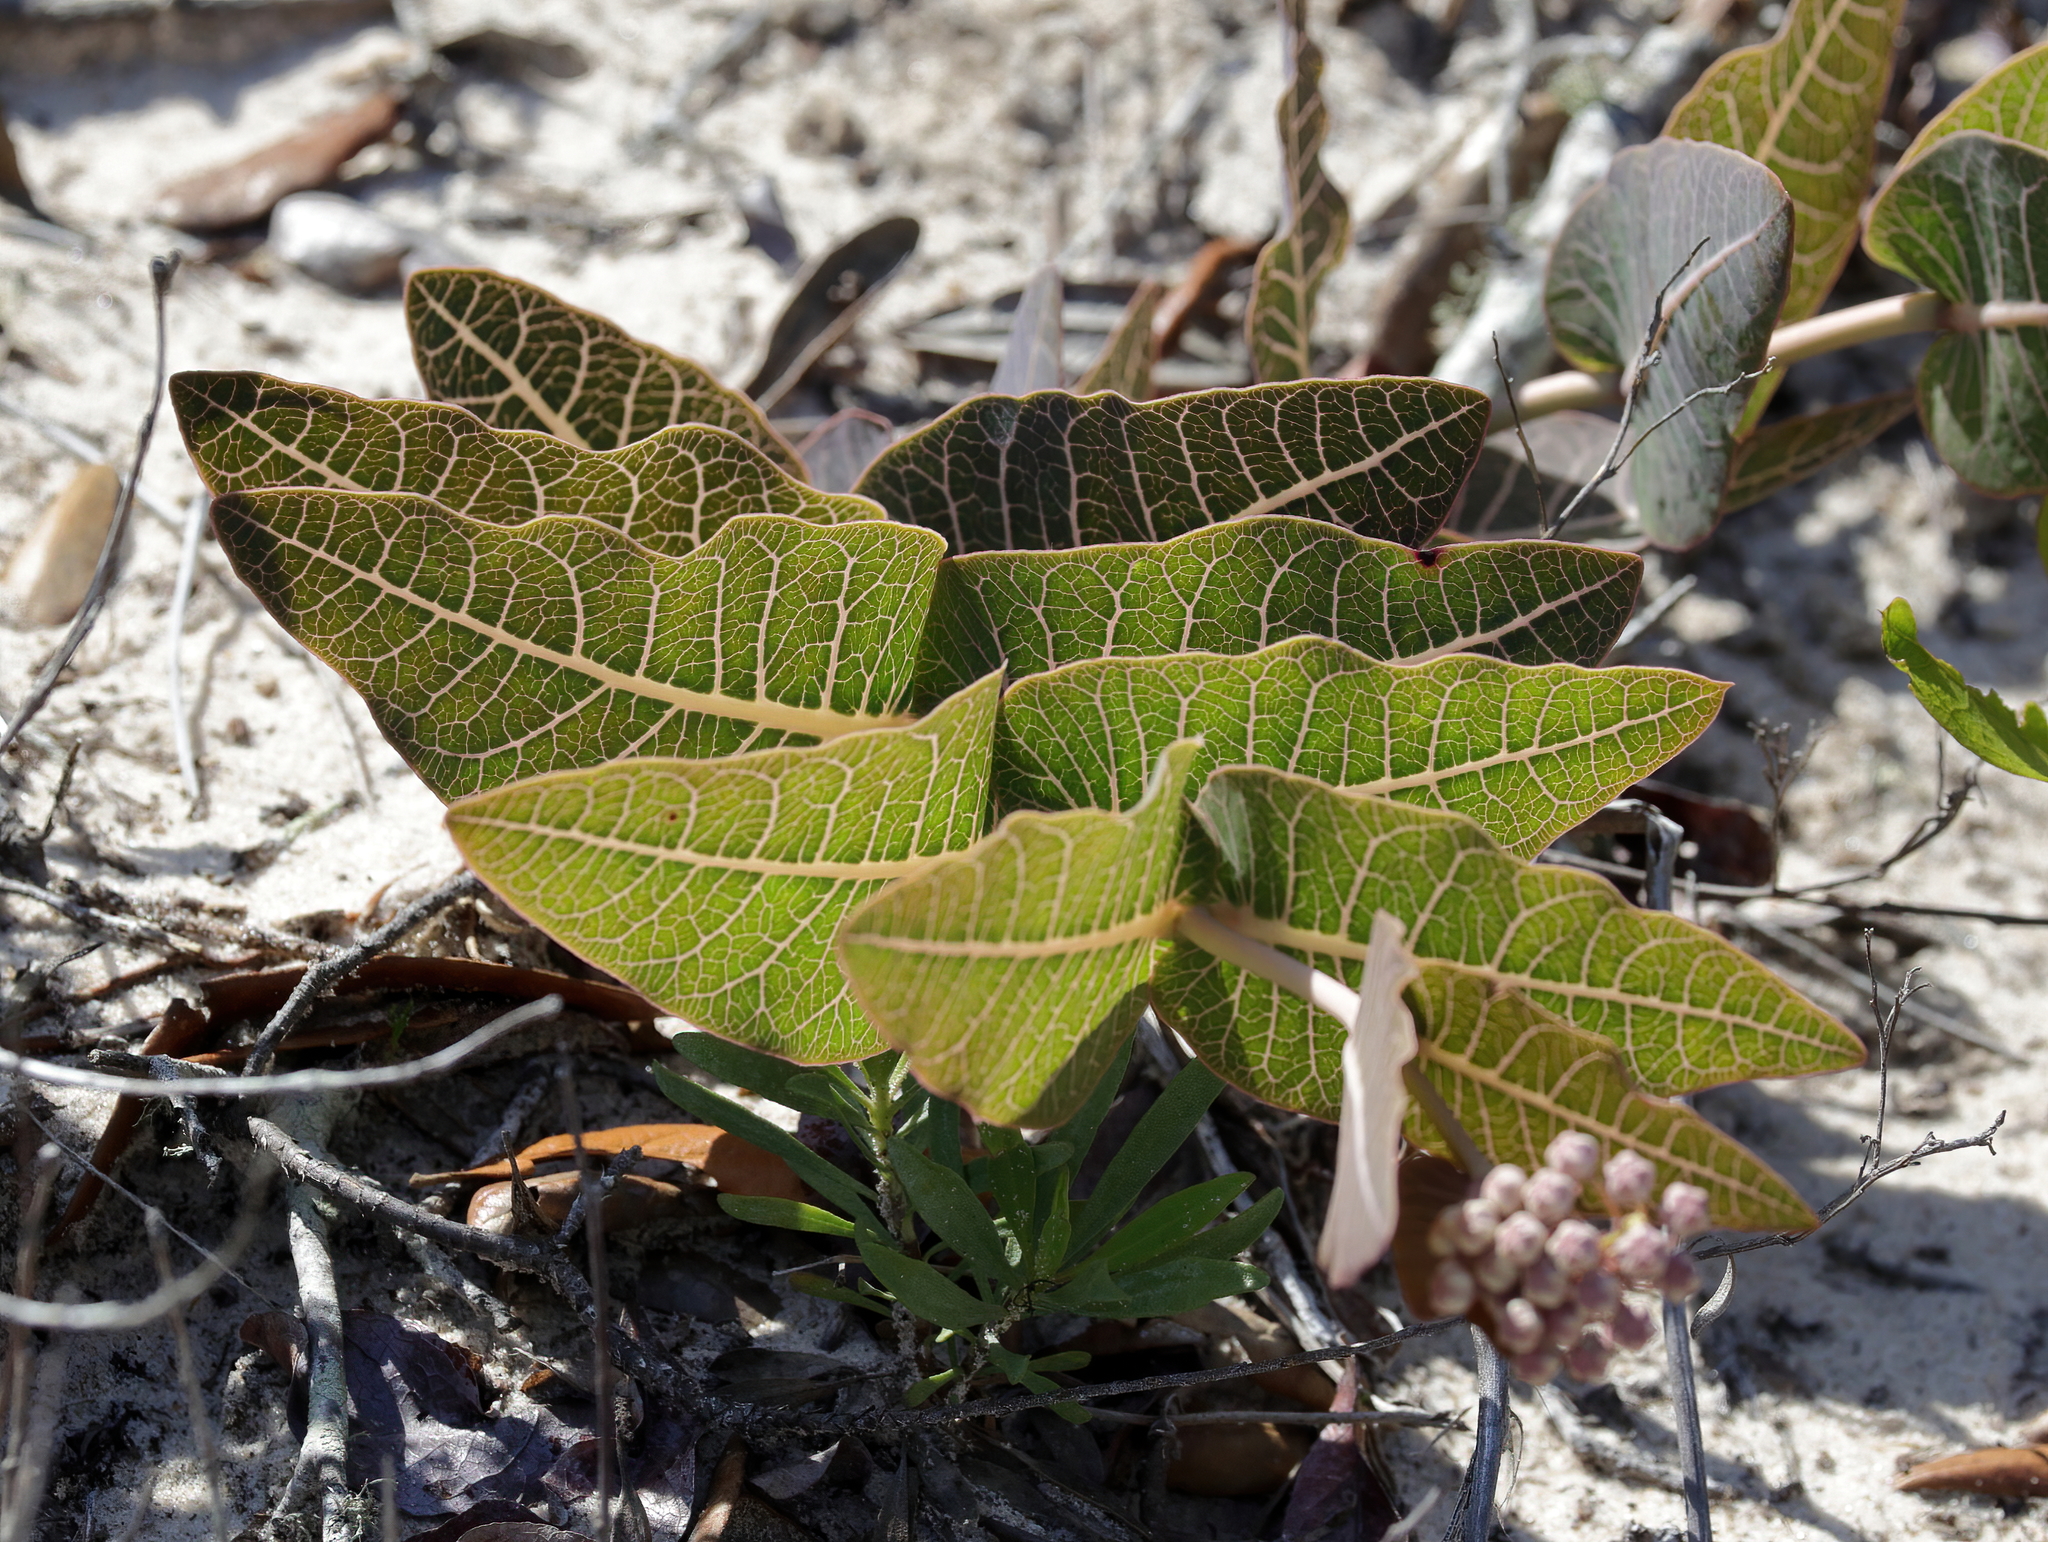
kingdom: Plantae
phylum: Tracheophyta
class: Magnoliopsida
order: Gentianales
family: Apocynaceae
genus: Asclepias
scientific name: Asclepias humistrata
